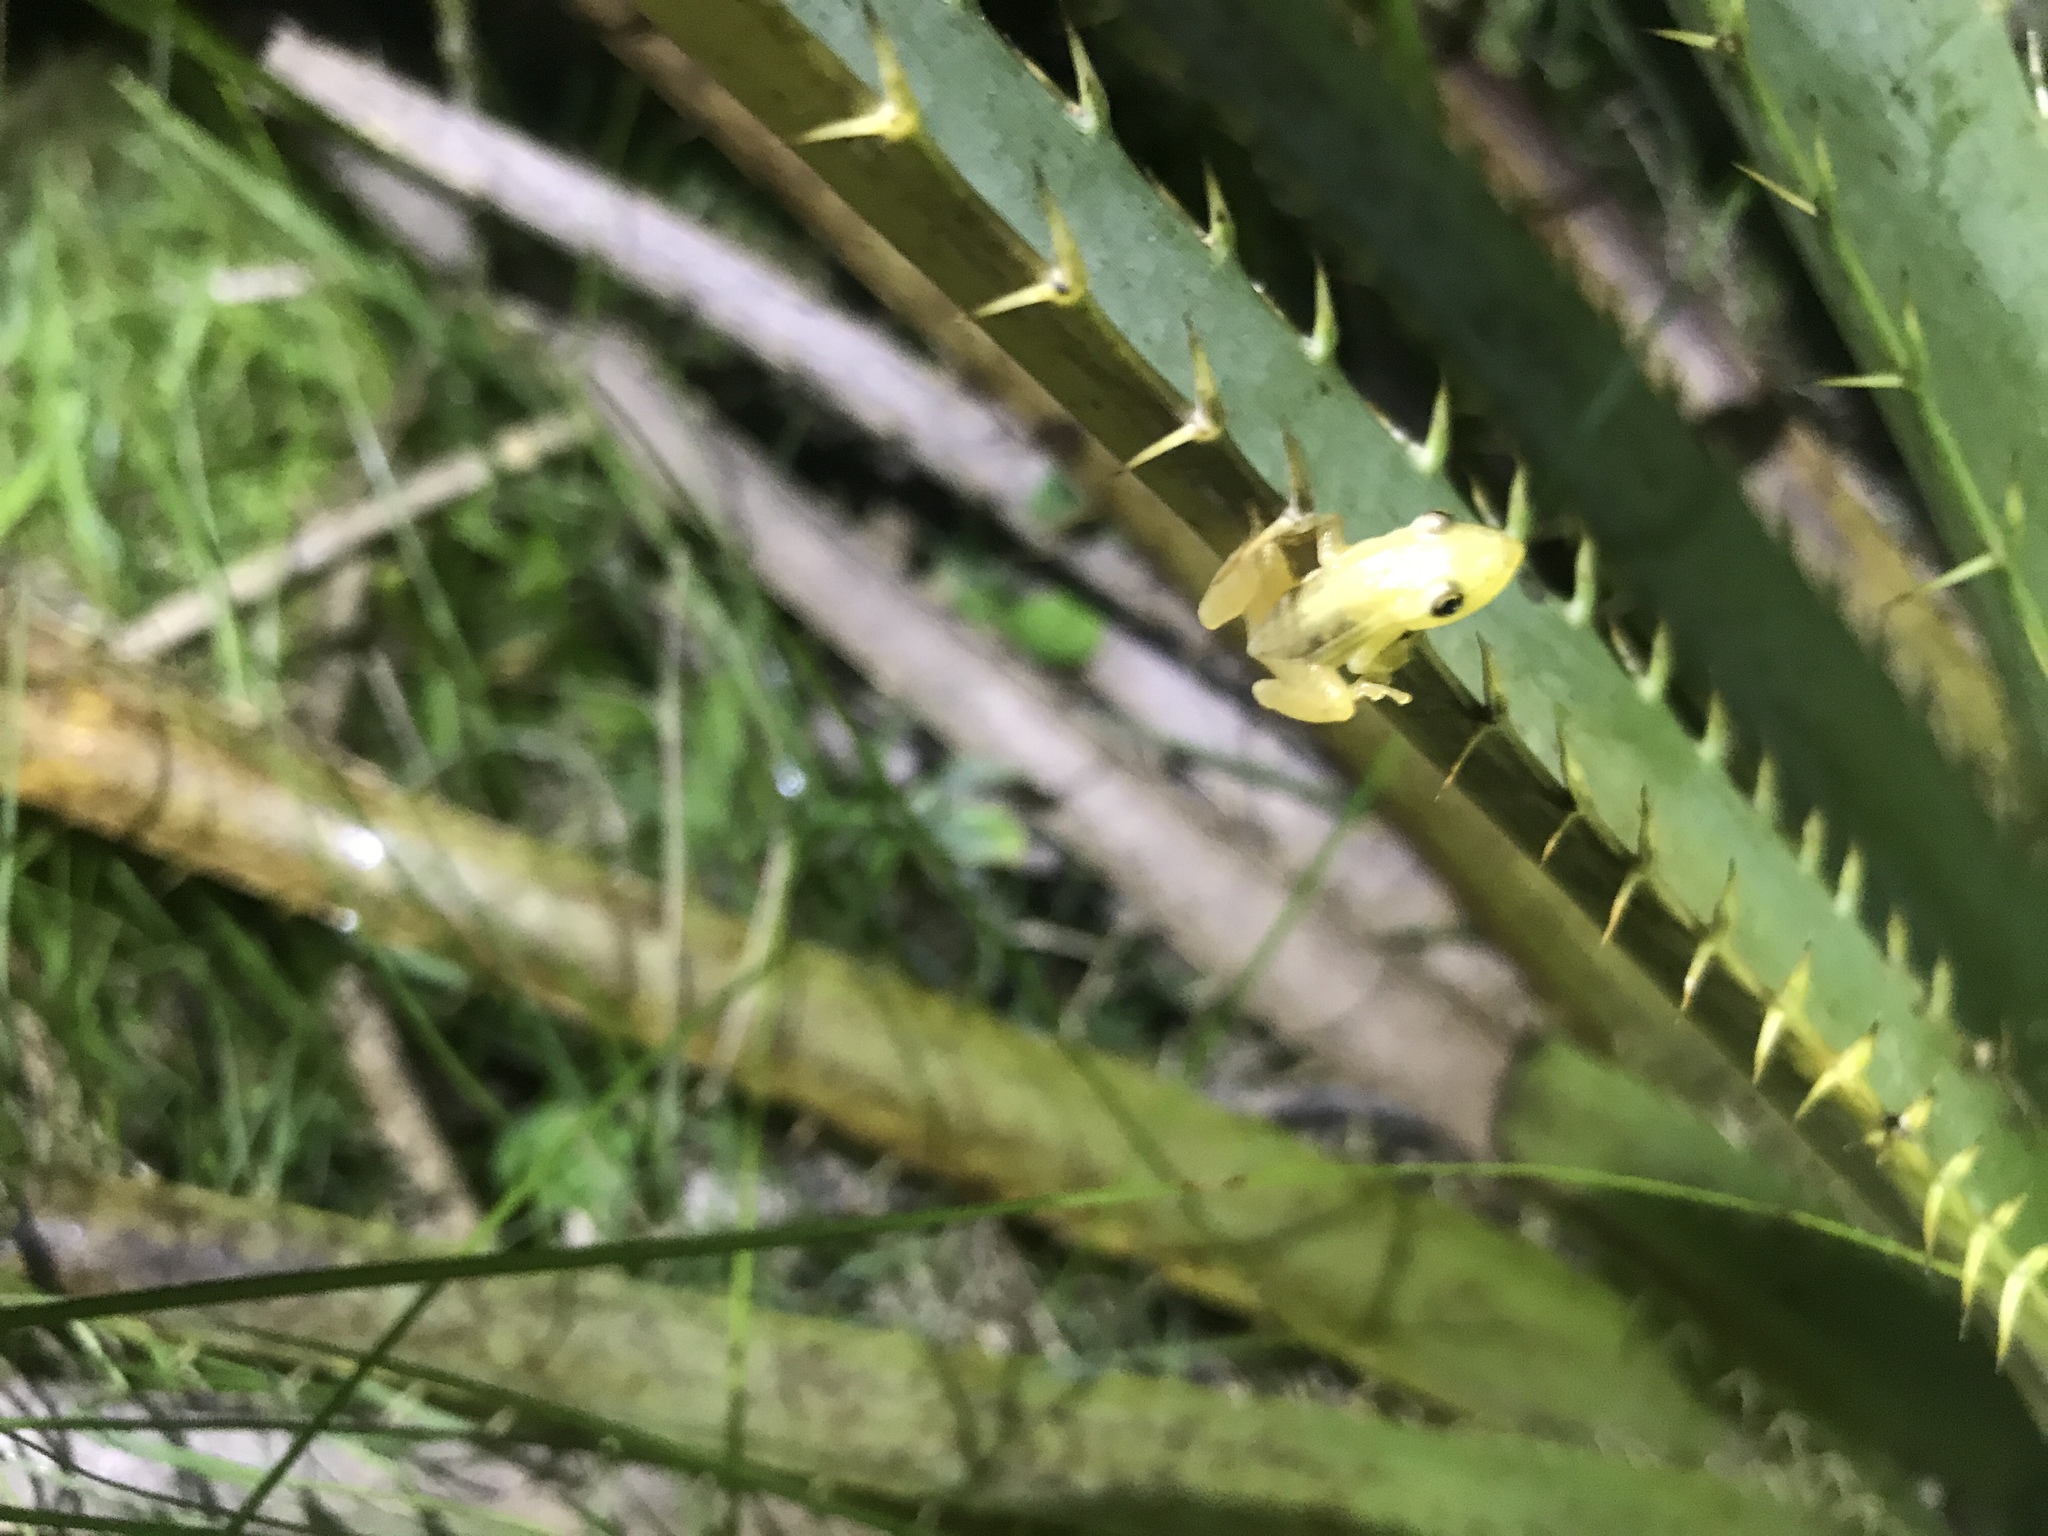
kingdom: Animalia
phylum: Chordata
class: Amphibia
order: Anura
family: Hylidae
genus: Scinax
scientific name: Scinax squalirostris
